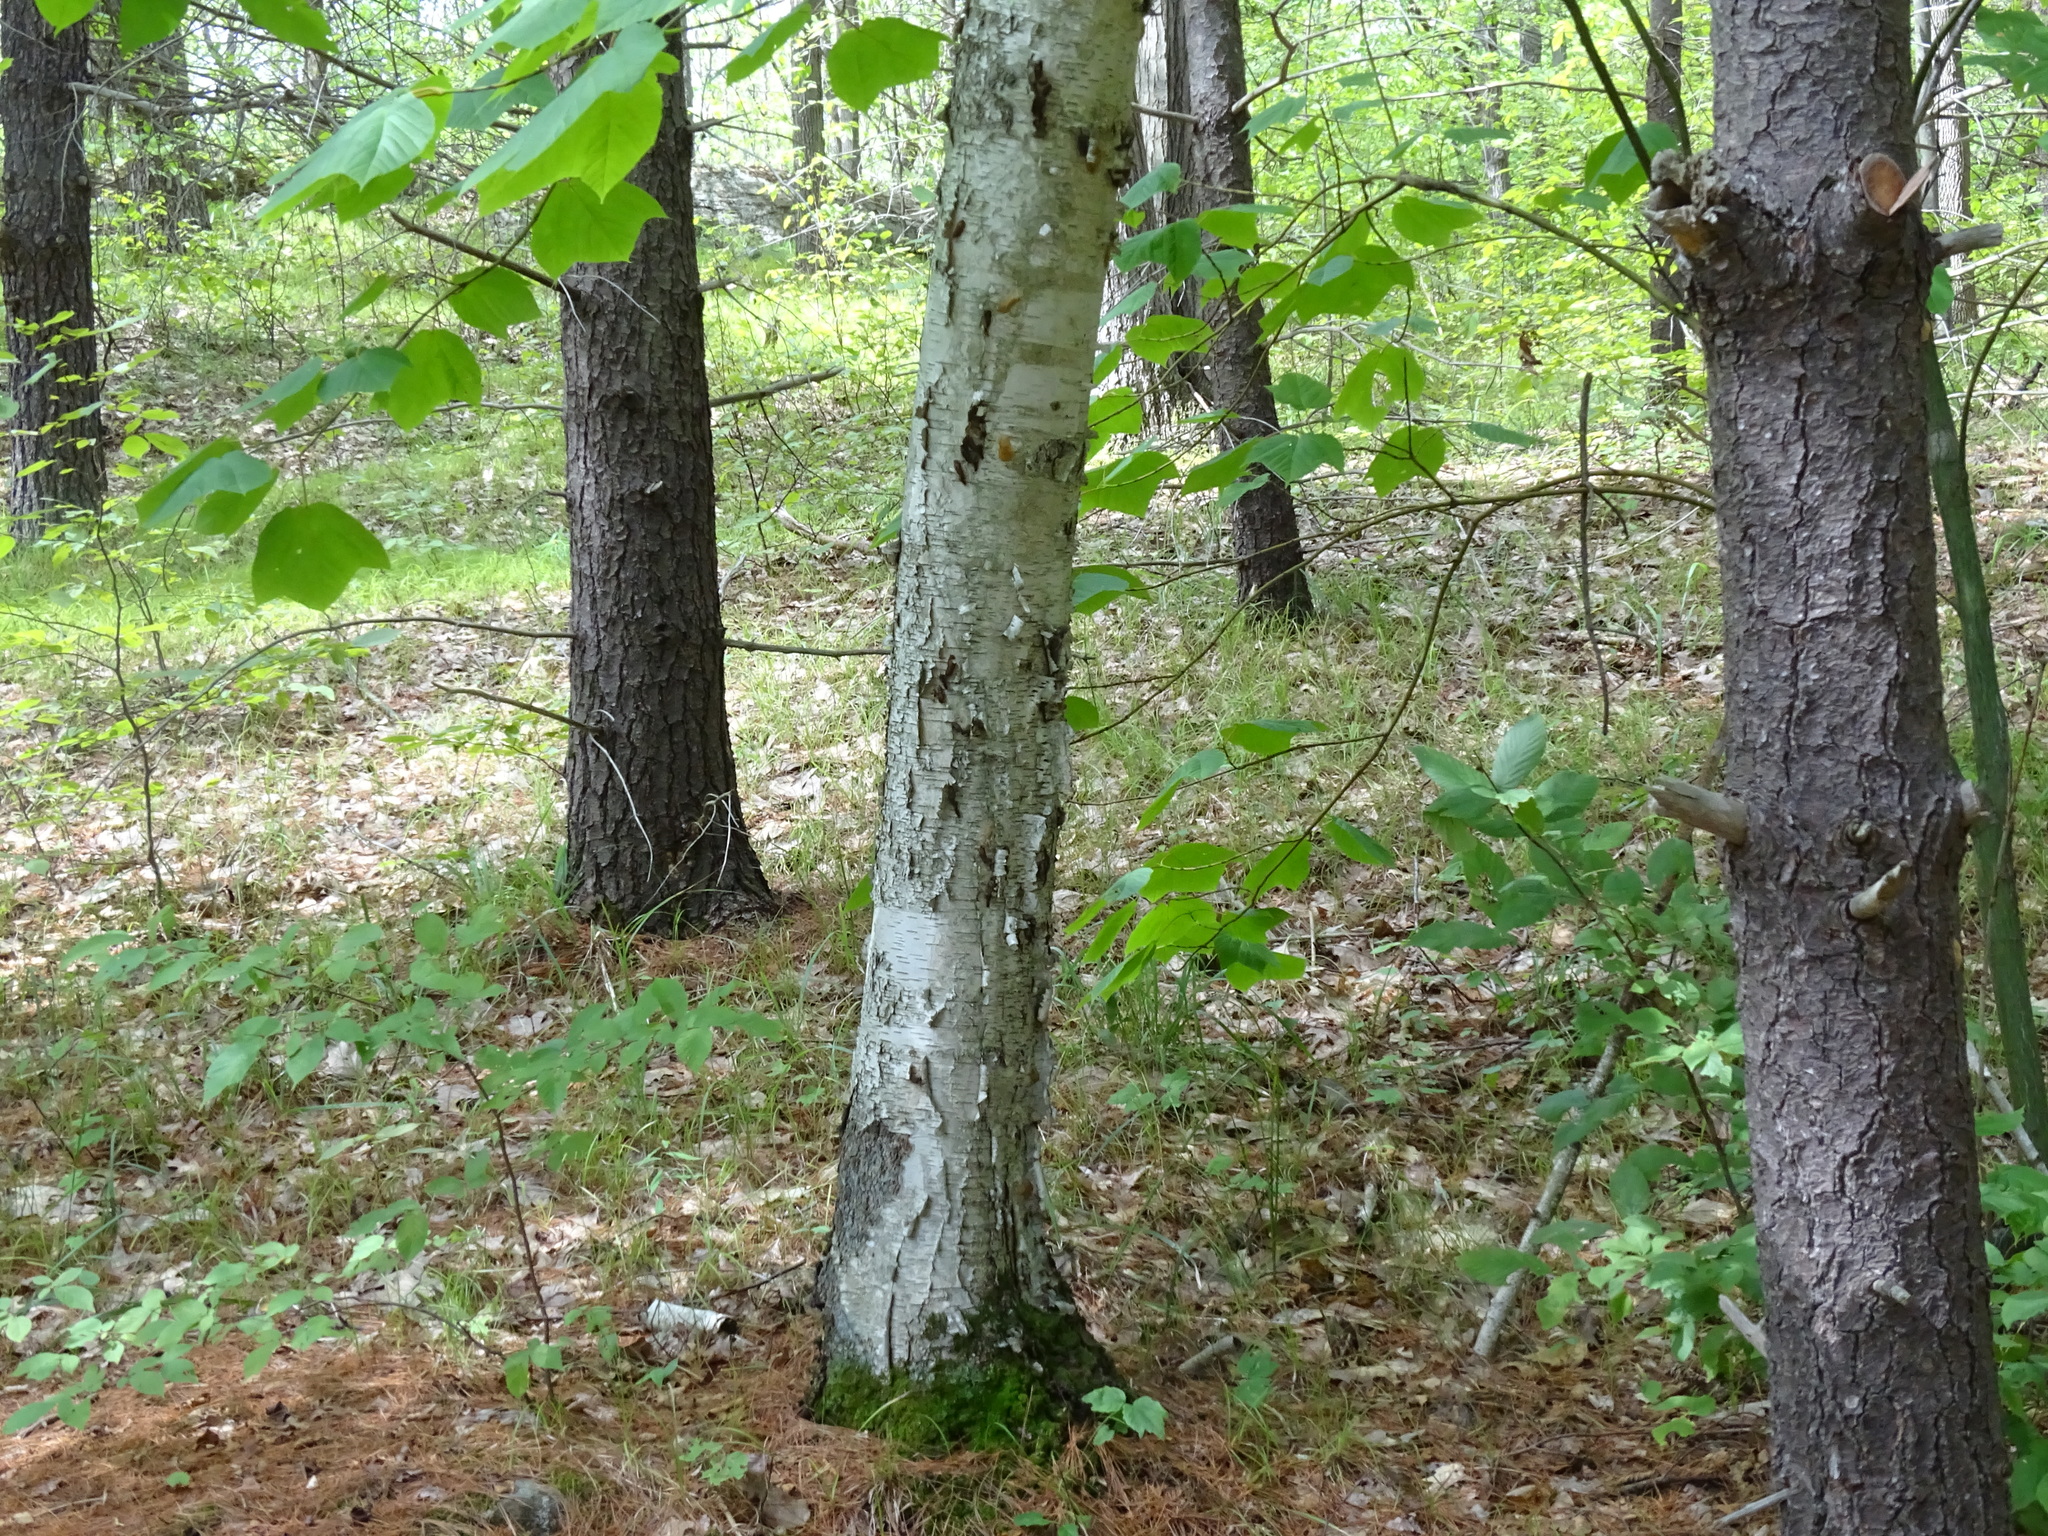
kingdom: Plantae
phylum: Tracheophyta
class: Magnoliopsida
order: Fagales
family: Betulaceae
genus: Betula
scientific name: Betula papyrifera
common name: Paper birch
